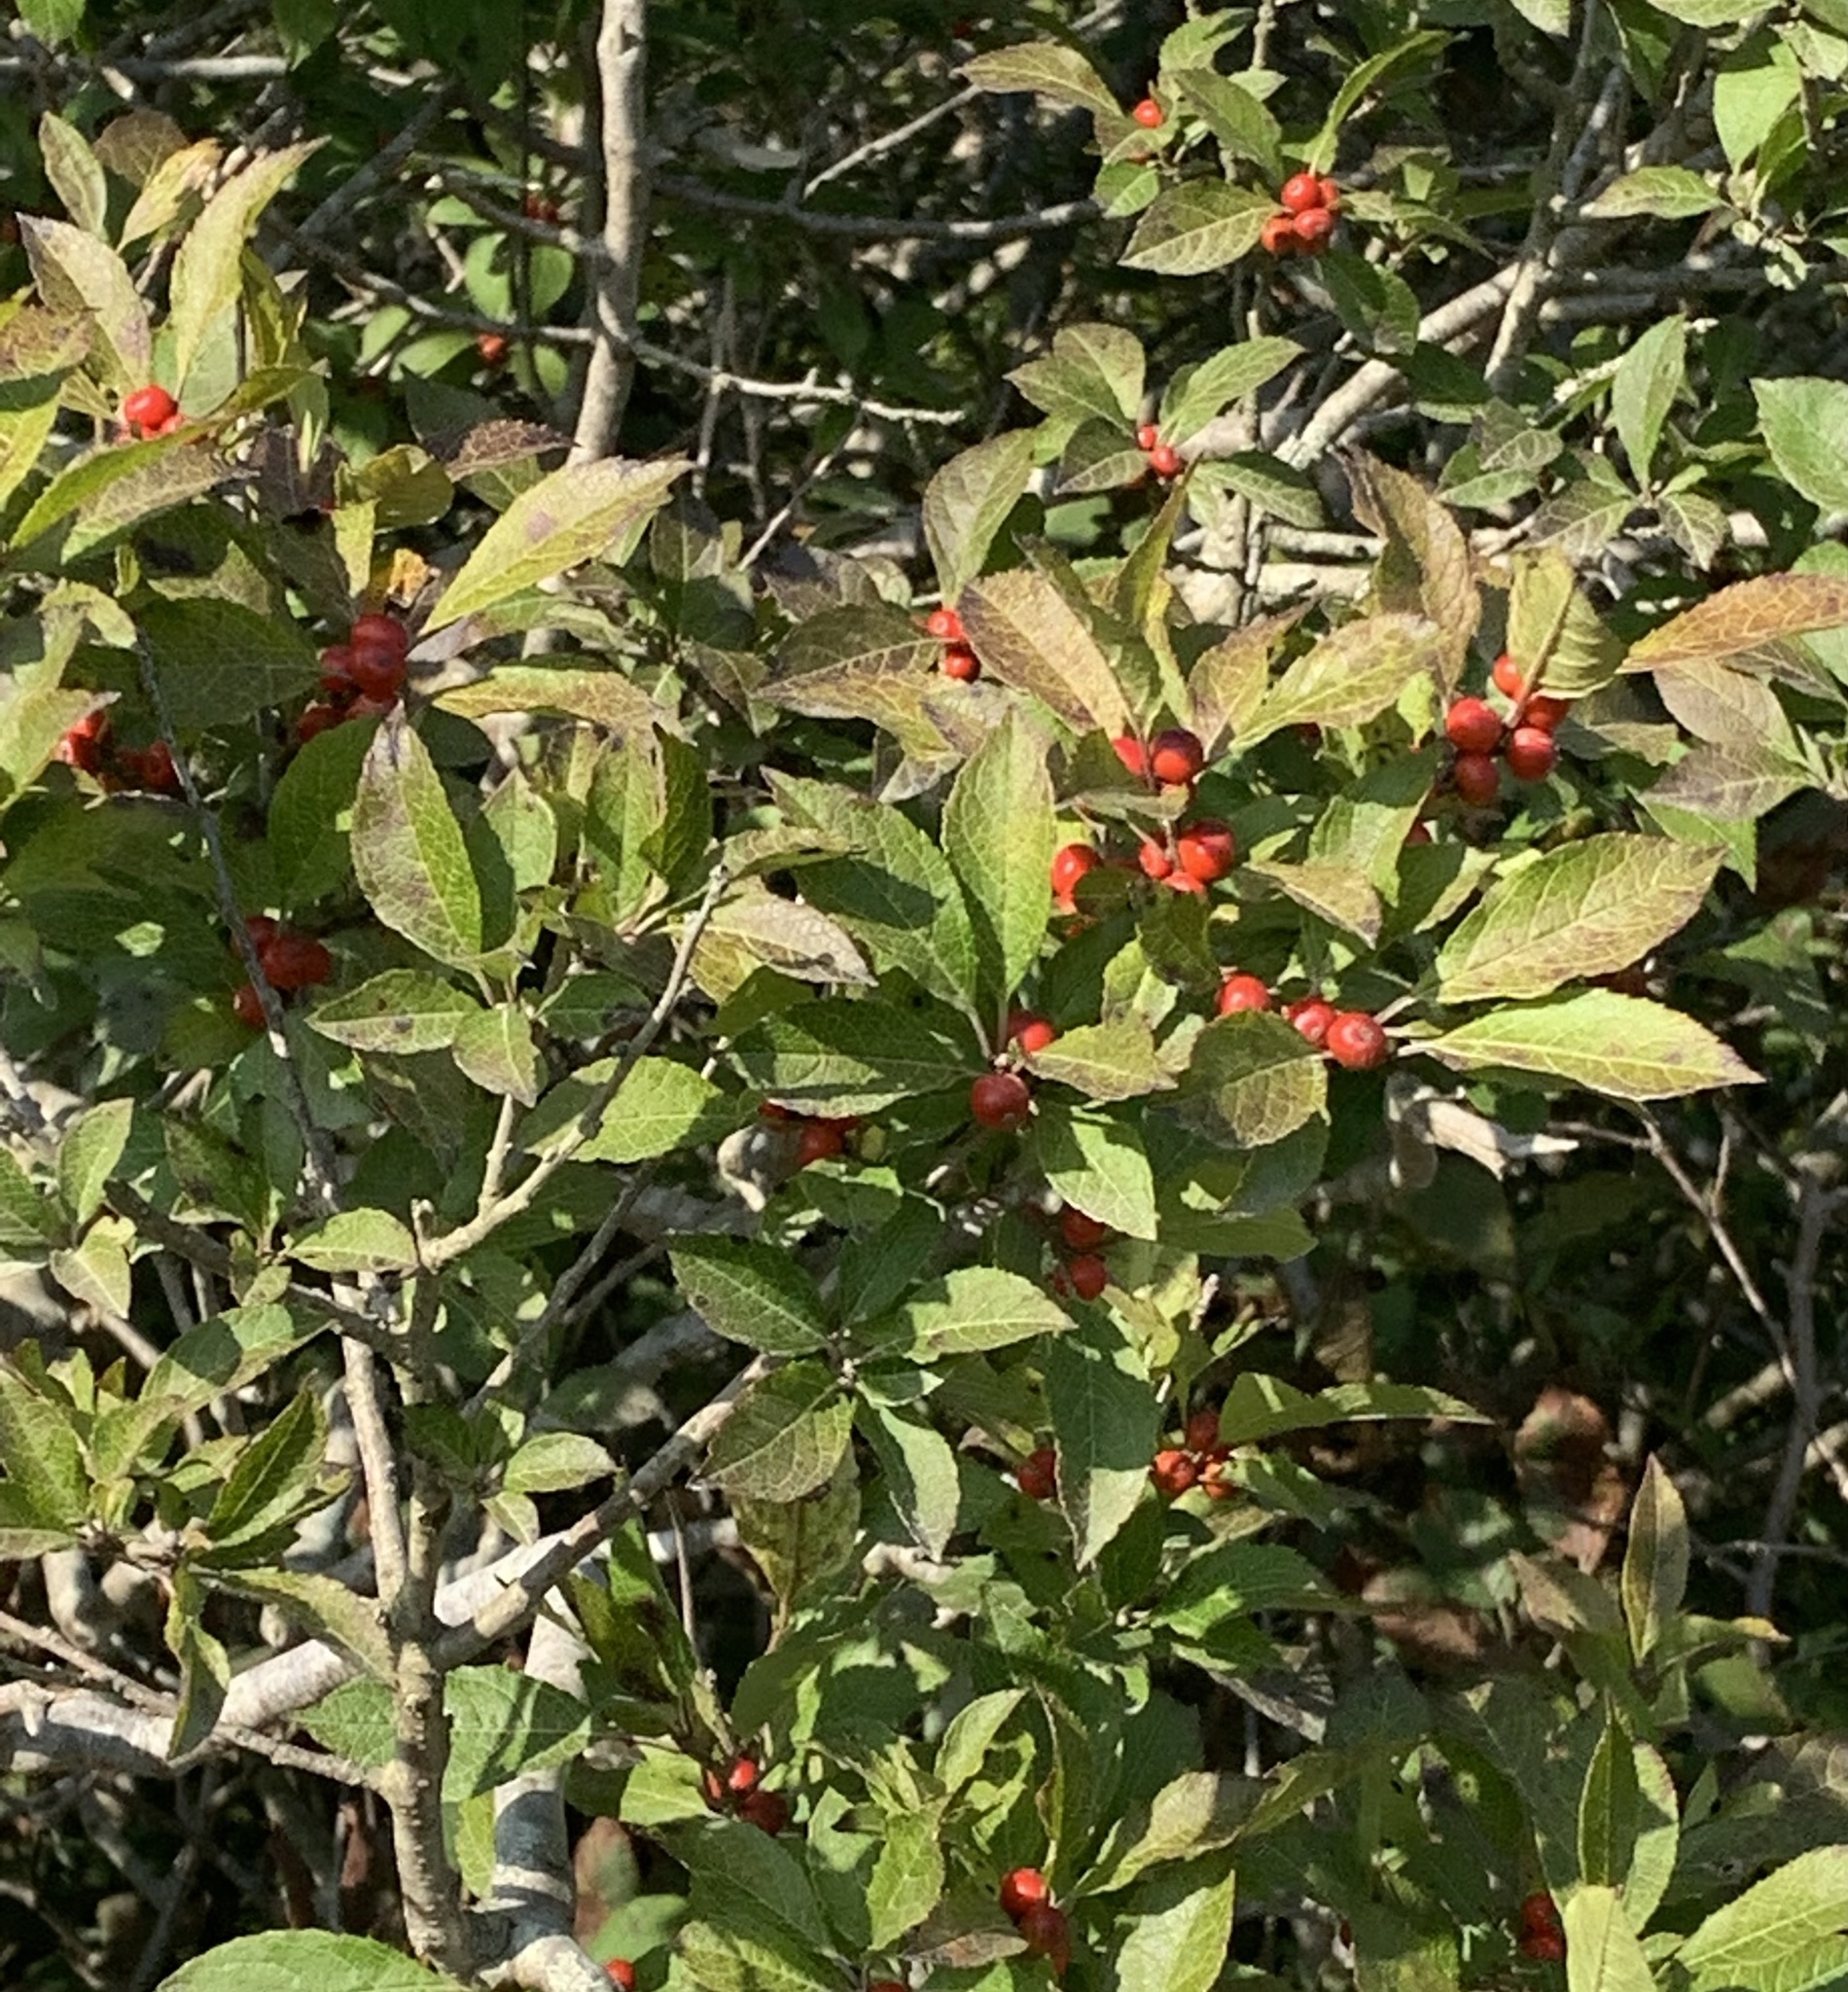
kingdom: Plantae
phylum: Tracheophyta
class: Magnoliopsida
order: Aquifoliales
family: Aquifoliaceae
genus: Ilex
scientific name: Ilex verticillata
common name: Virginia winterberry
